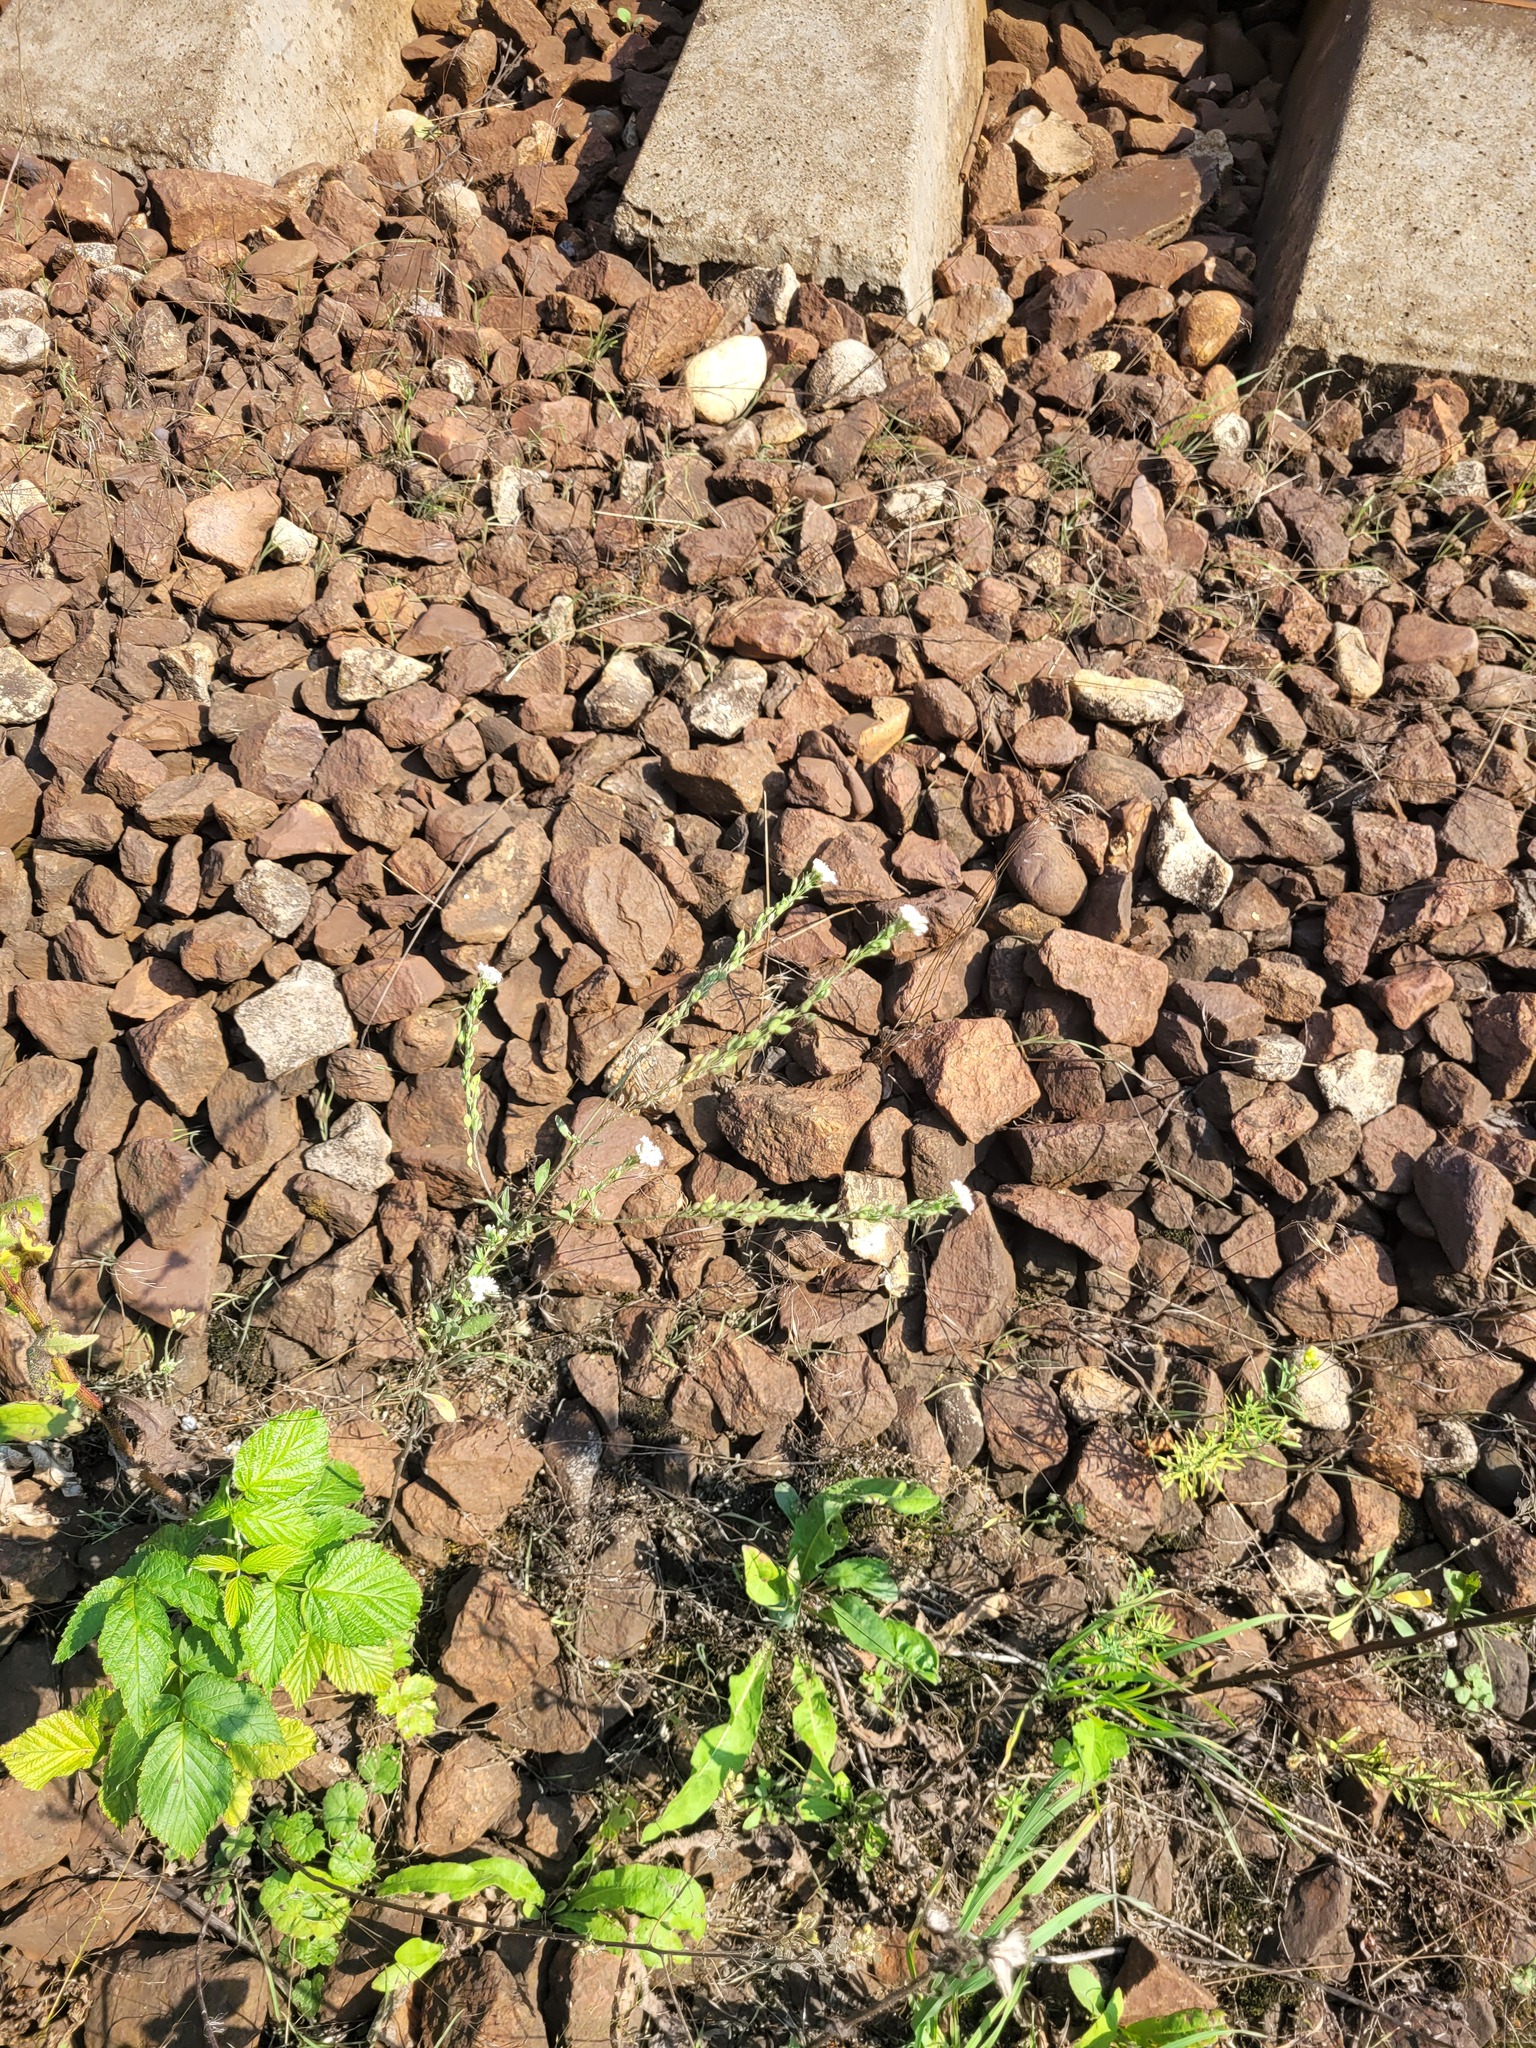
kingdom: Plantae
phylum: Tracheophyta
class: Magnoliopsida
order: Brassicales
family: Brassicaceae
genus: Berteroa
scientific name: Berteroa incana
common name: Hoary alison
